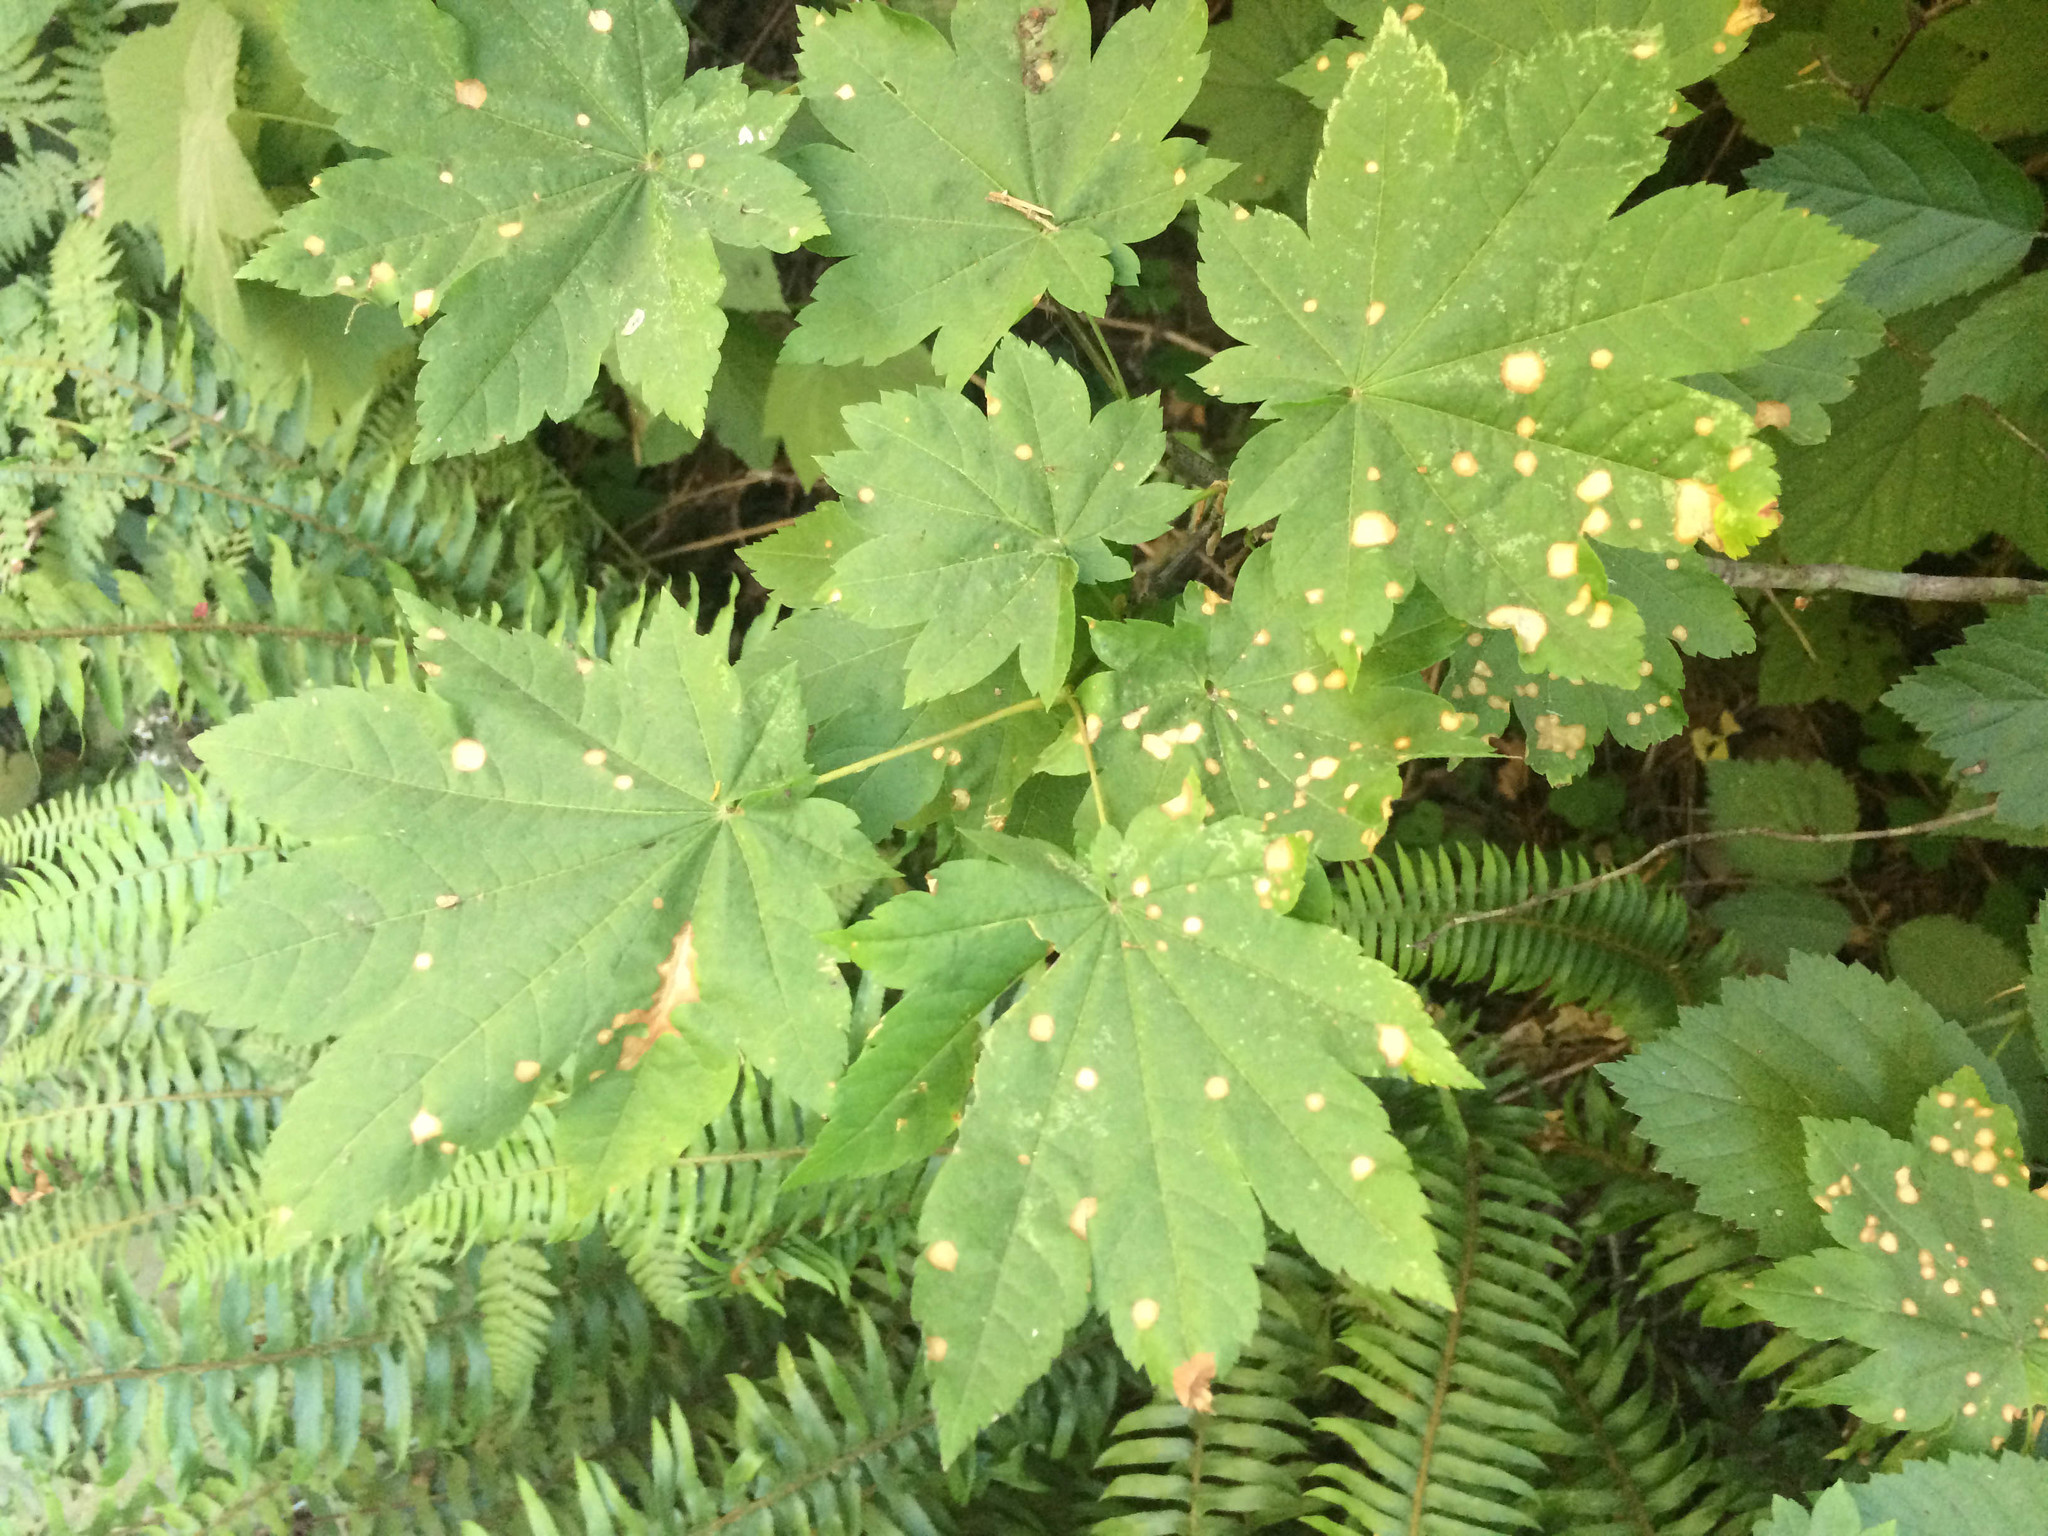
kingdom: Plantae
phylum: Tracheophyta
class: Magnoliopsida
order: Sapindales
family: Sapindaceae
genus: Acer
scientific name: Acer circinatum
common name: Vine maple
